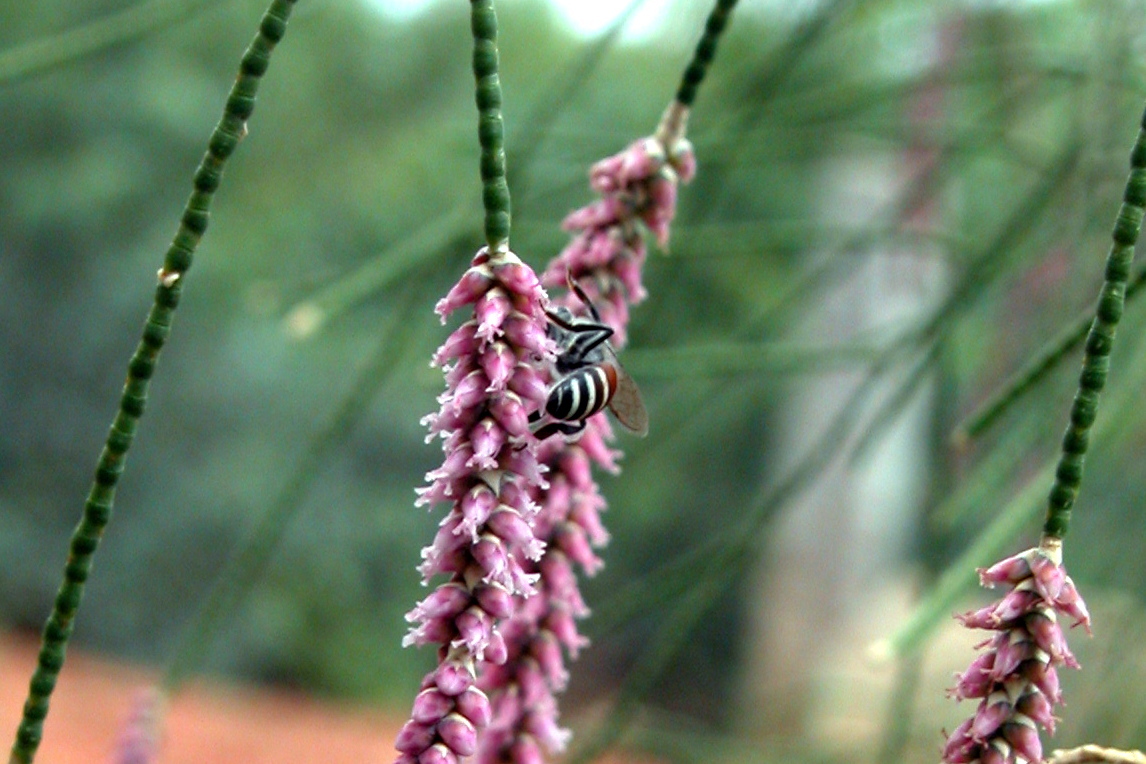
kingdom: Animalia
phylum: Arthropoda
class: Insecta
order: Hymenoptera
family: Apidae
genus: Apis
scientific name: Apis florea
